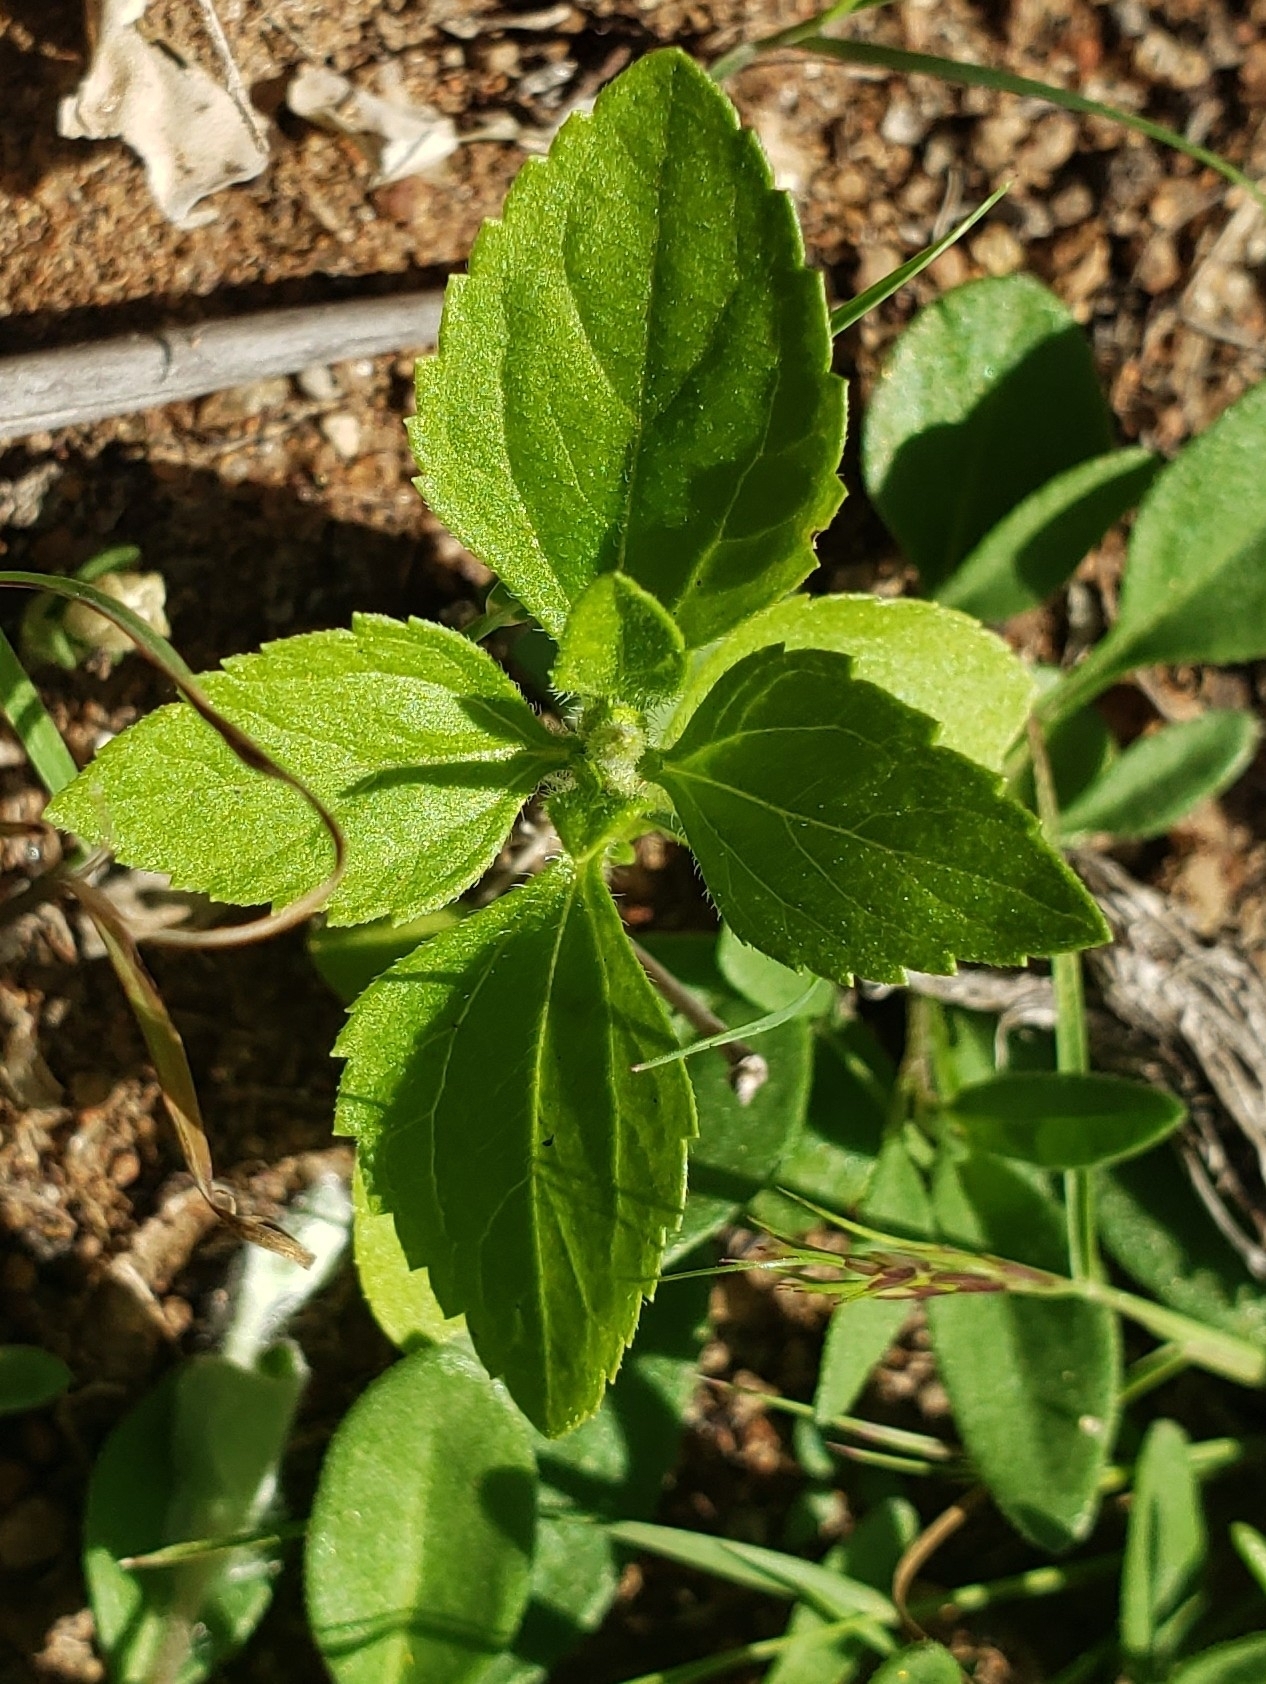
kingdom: Plantae
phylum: Tracheophyta
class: Magnoliopsida
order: Asterales
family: Asteraceae
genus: Calyptocarpus
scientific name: Calyptocarpus vialis
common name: Straggler daisy
